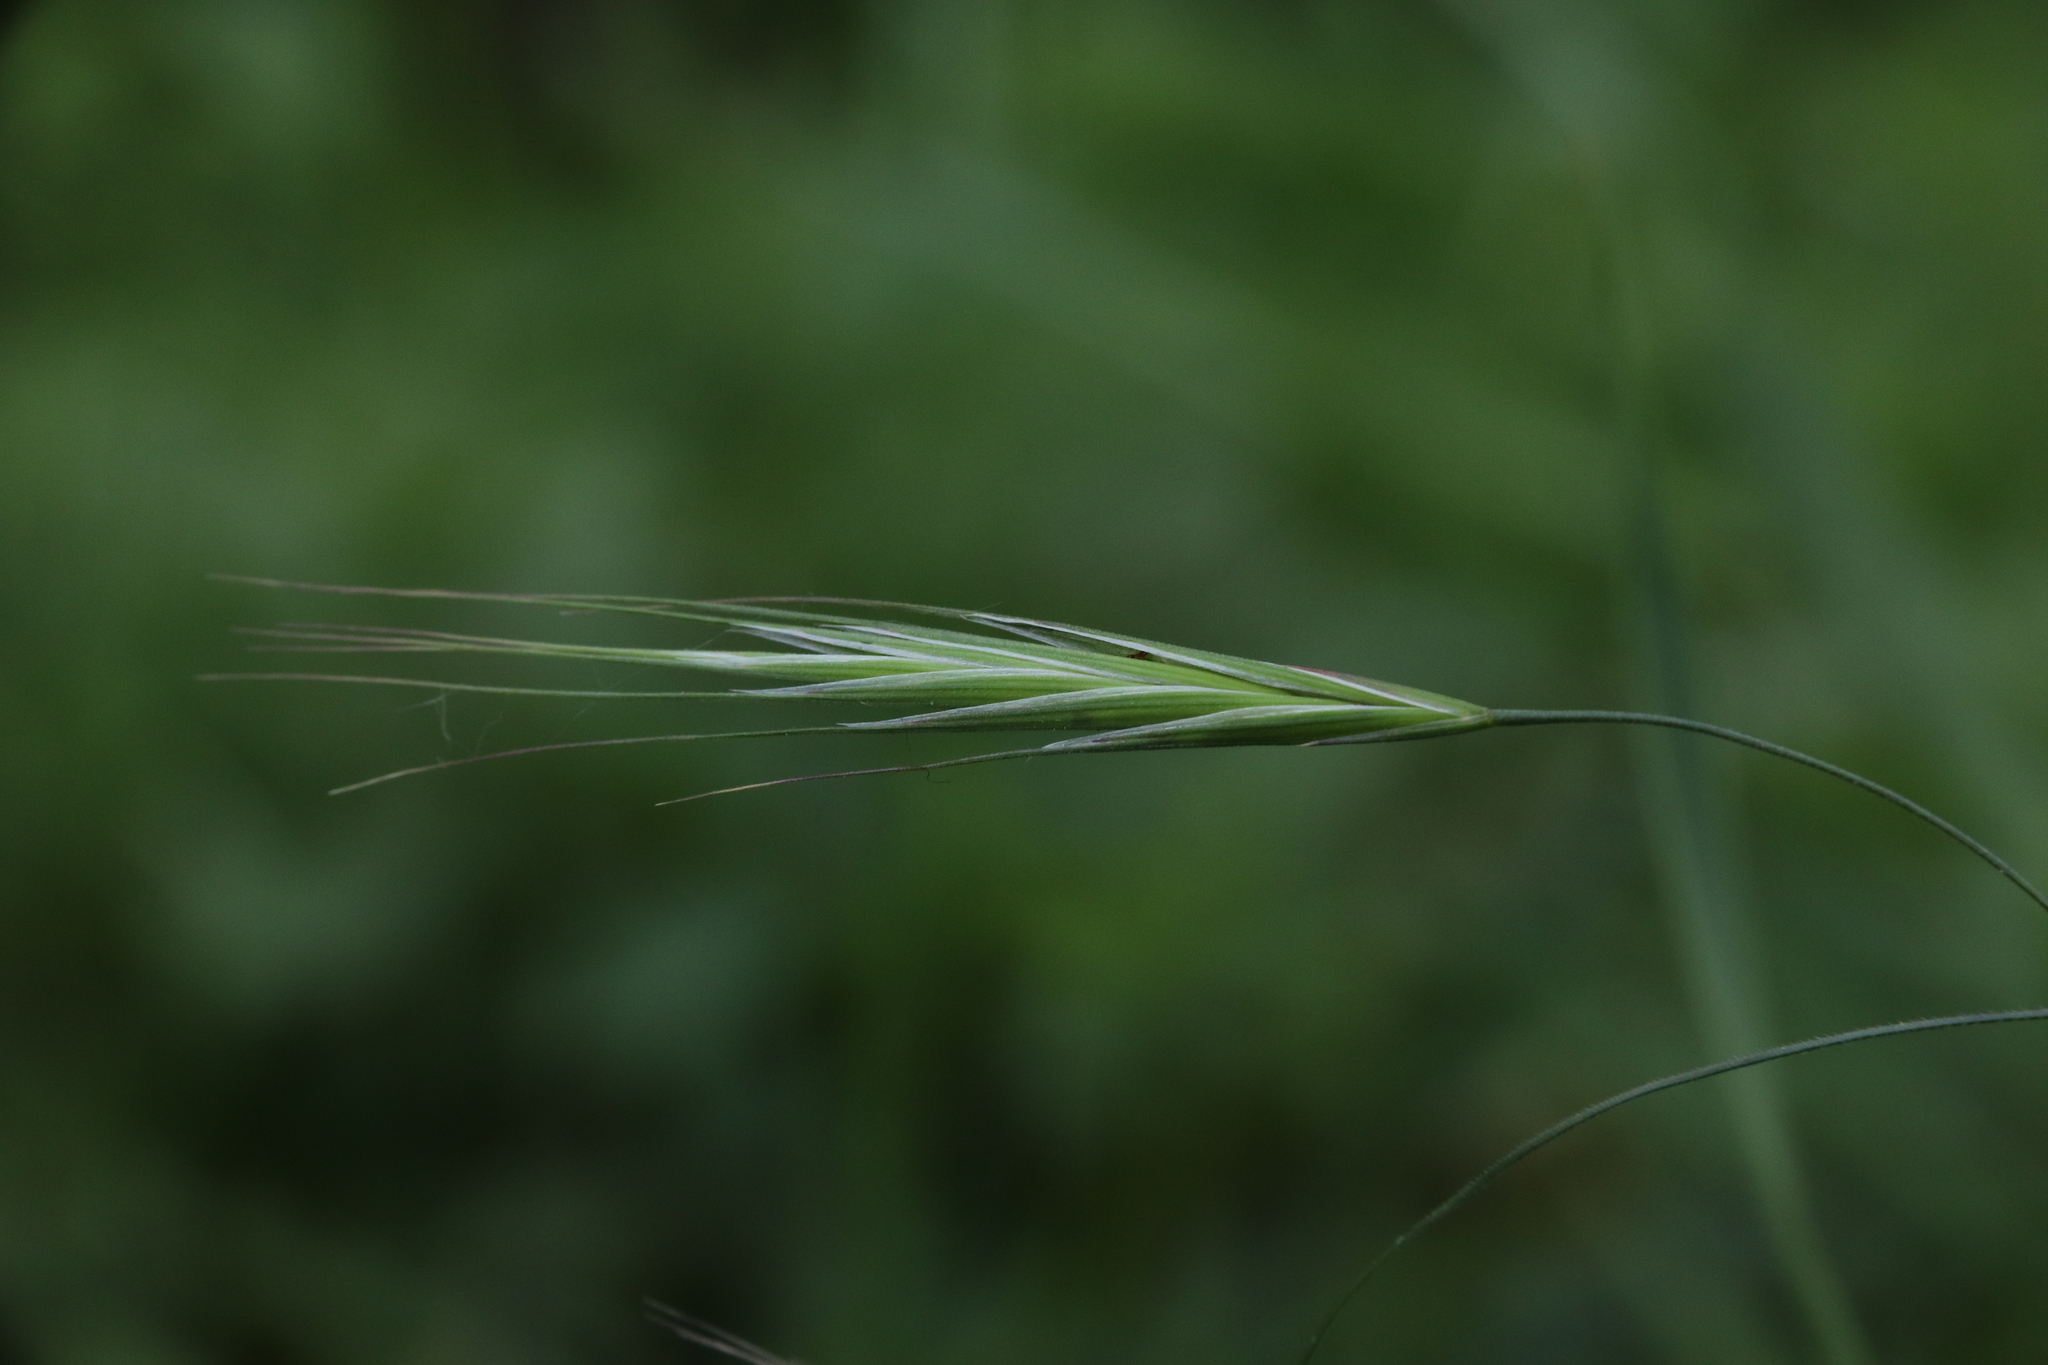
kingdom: Plantae
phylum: Tracheophyta
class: Liliopsida
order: Poales
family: Poaceae
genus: Bromus
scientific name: Bromus sterilis
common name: Poverty brome
